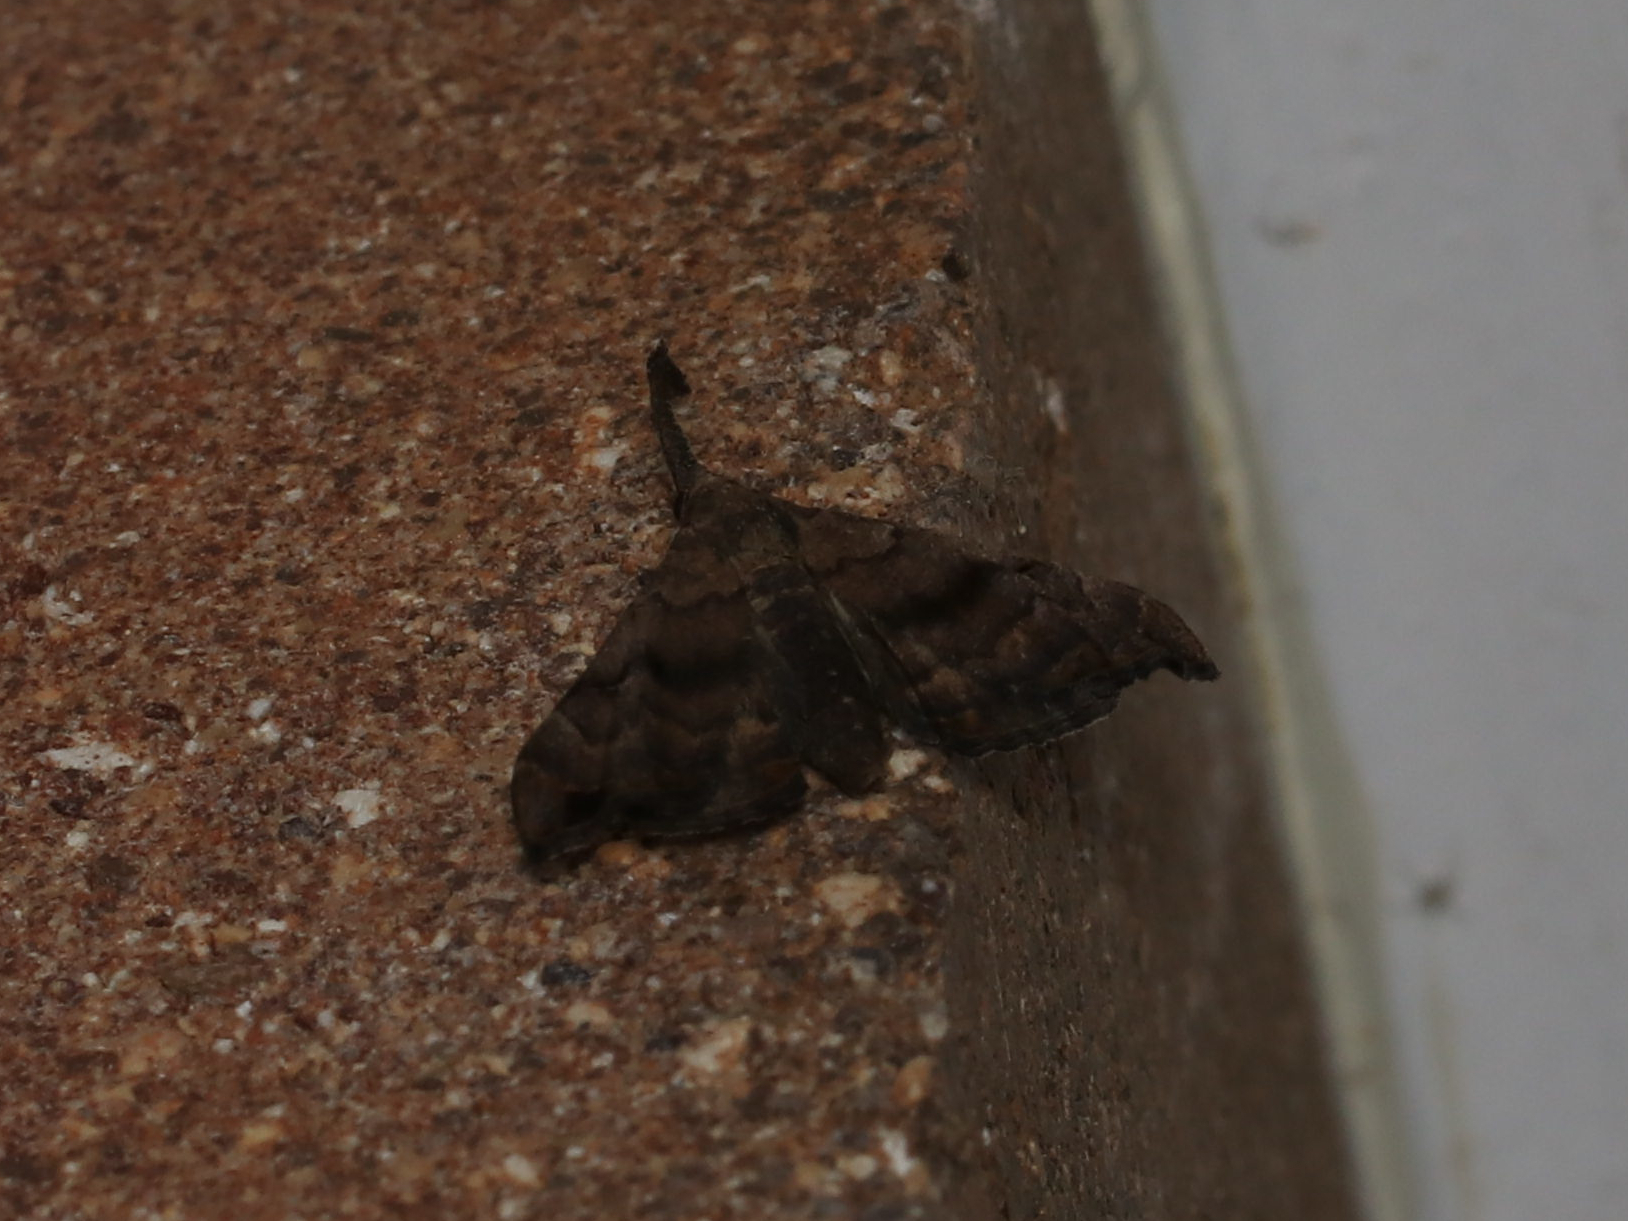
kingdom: Animalia
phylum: Arthropoda
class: Insecta
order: Lepidoptera
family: Erebidae
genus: Palthis
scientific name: Palthis asopialis
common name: Faint-spotted palthis moth
